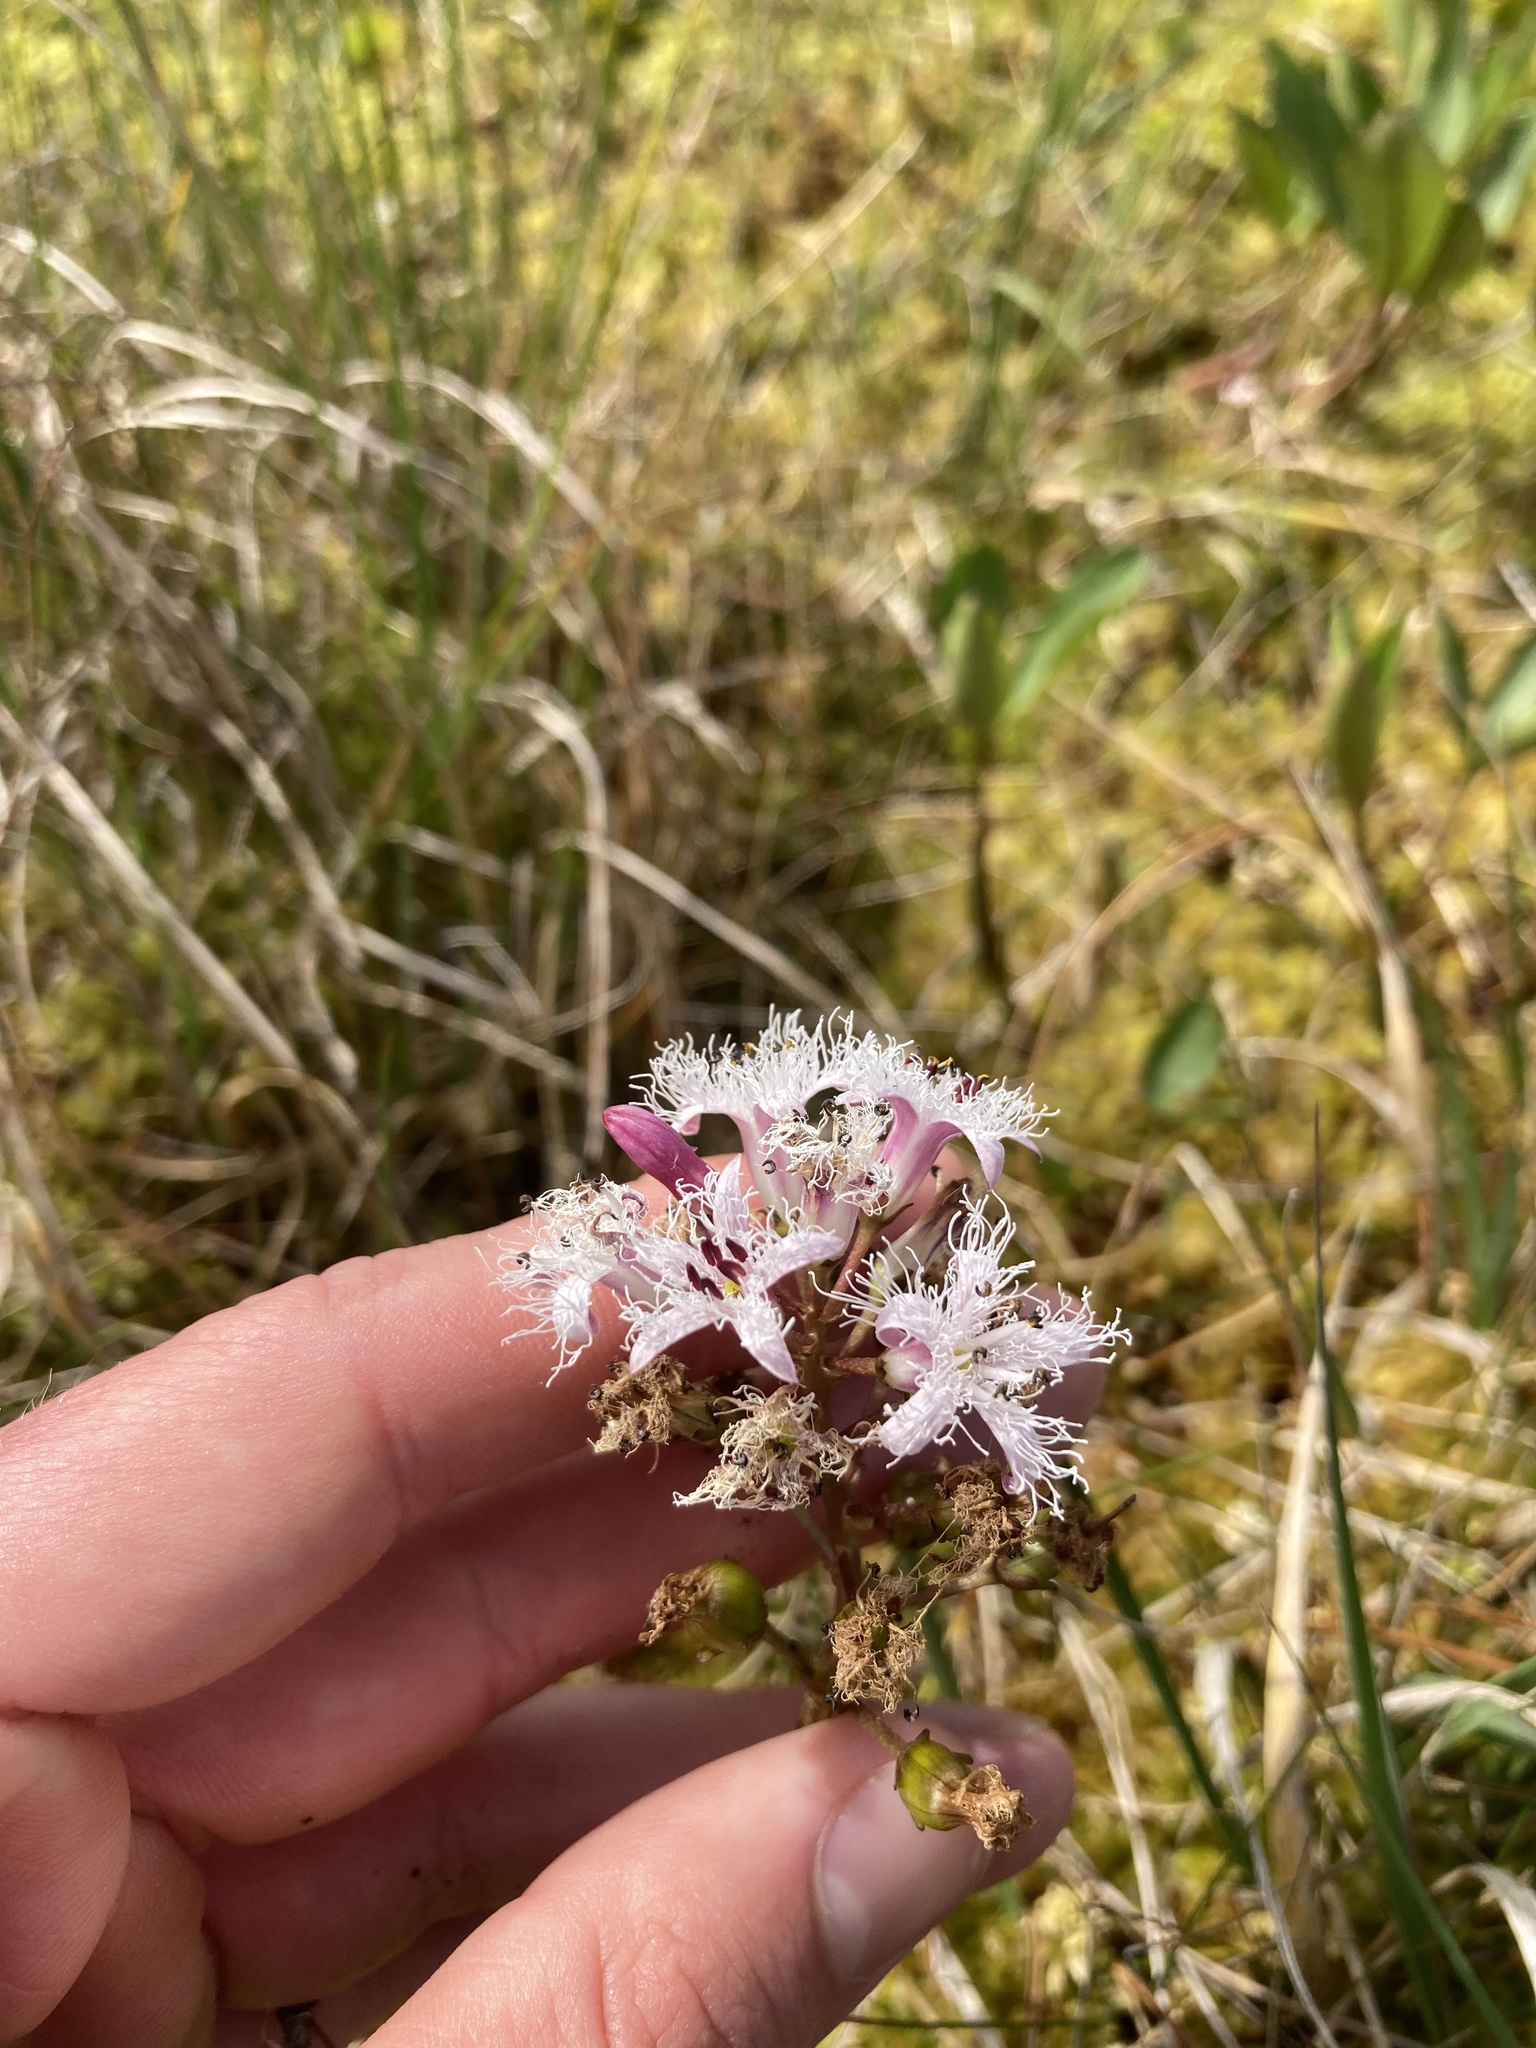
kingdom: Plantae
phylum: Tracheophyta
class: Magnoliopsida
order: Asterales
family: Menyanthaceae
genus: Menyanthes
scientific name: Menyanthes trifoliata
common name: Bogbean
